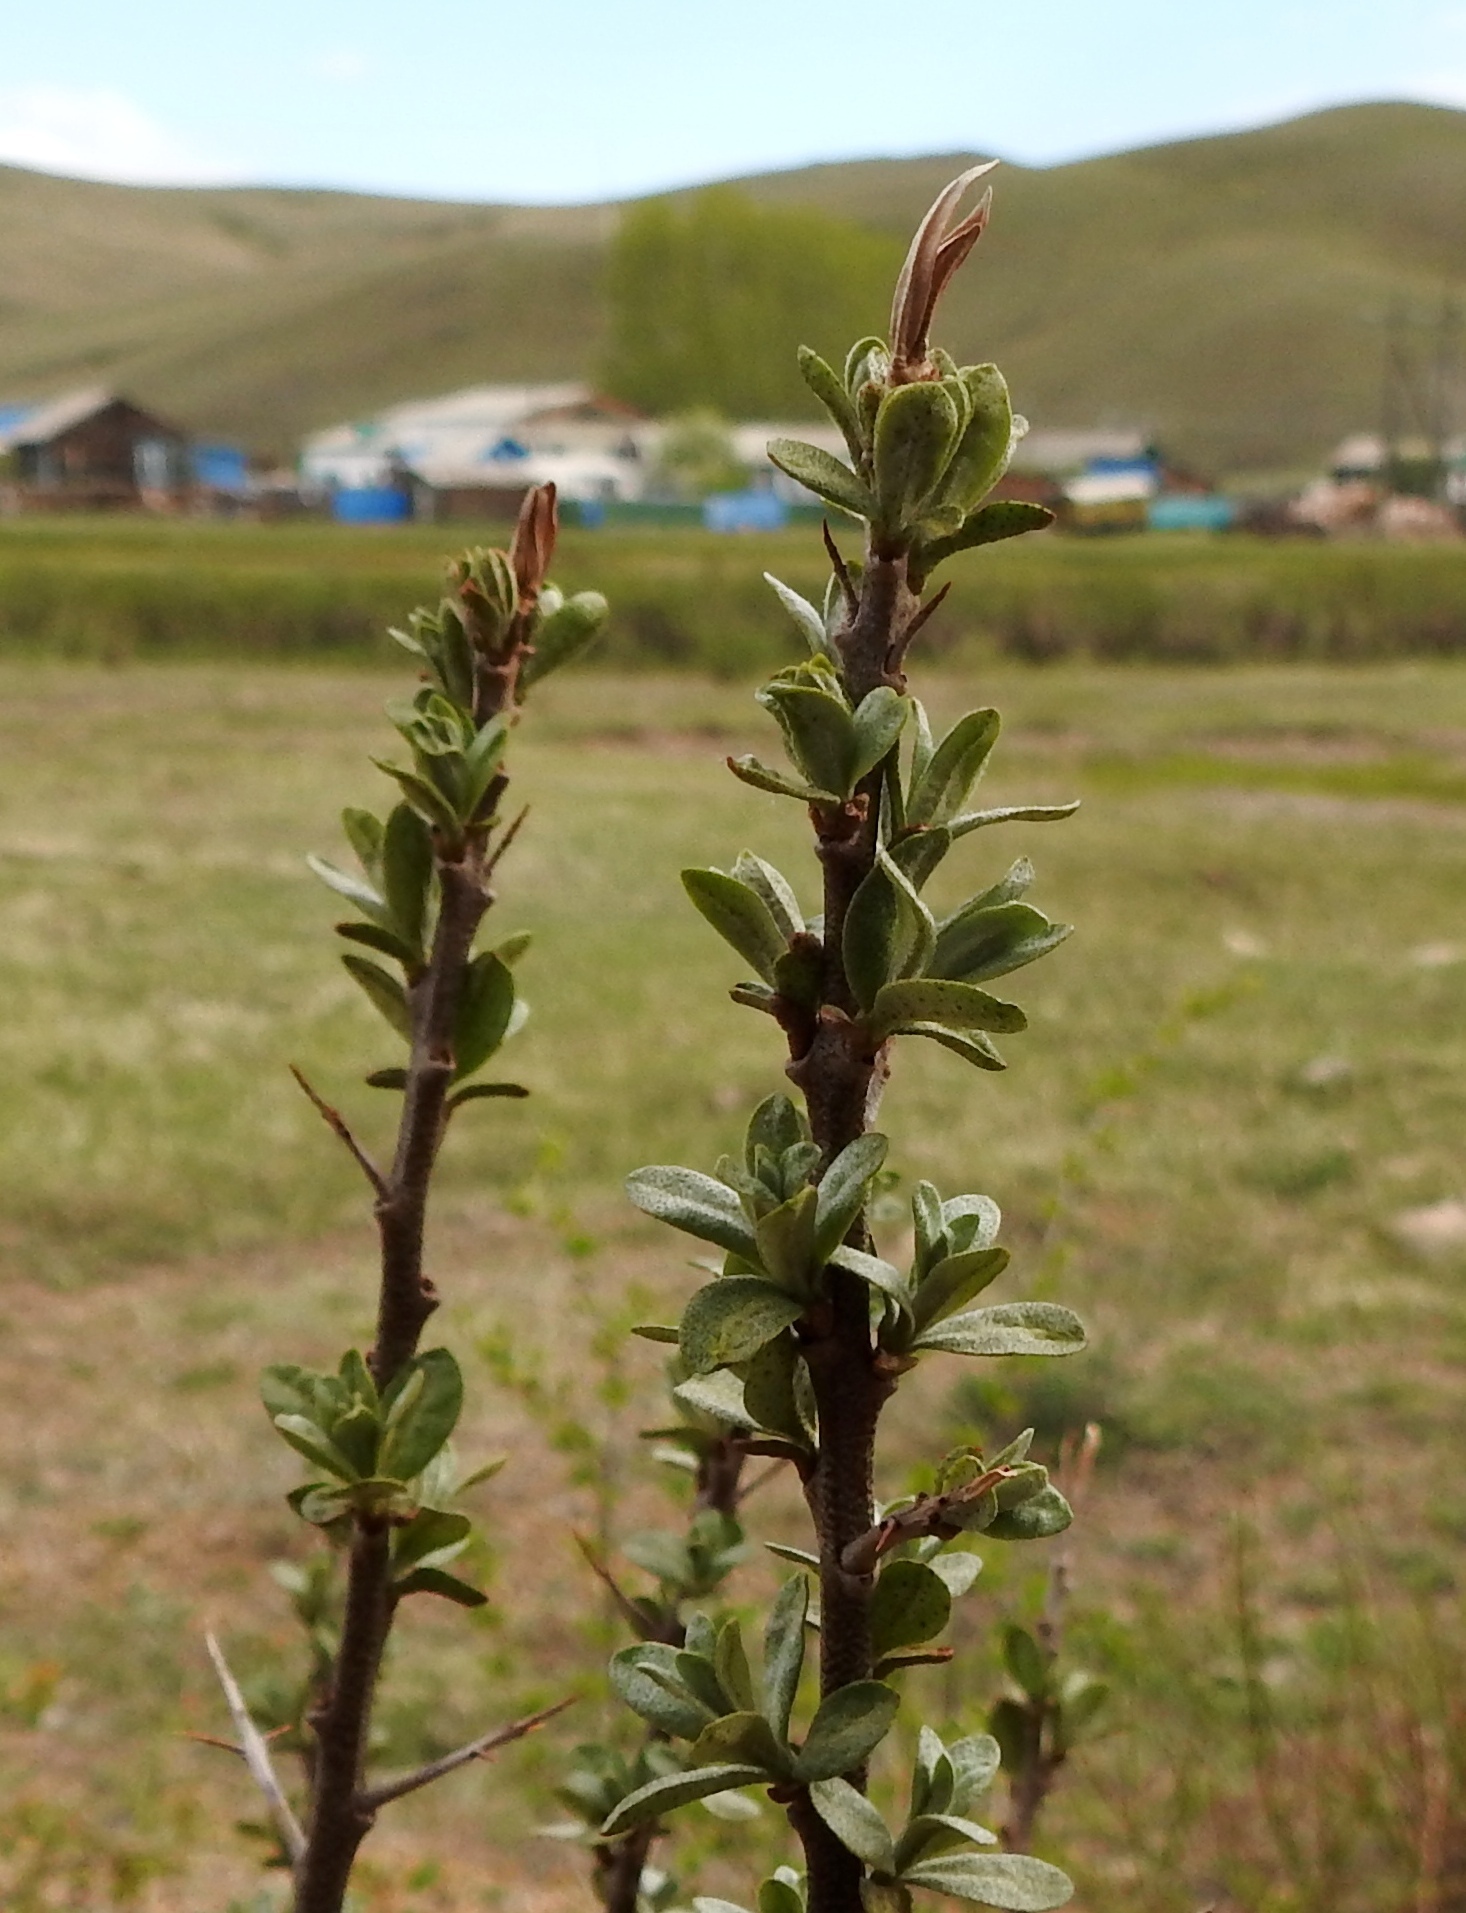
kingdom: Plantae
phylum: Tracheophyta
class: Magnoliopsida
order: Rosales
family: Elaeagnaceae
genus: Hippophae
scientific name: Hippophae rhamnoides
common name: Sea-buckthorn
